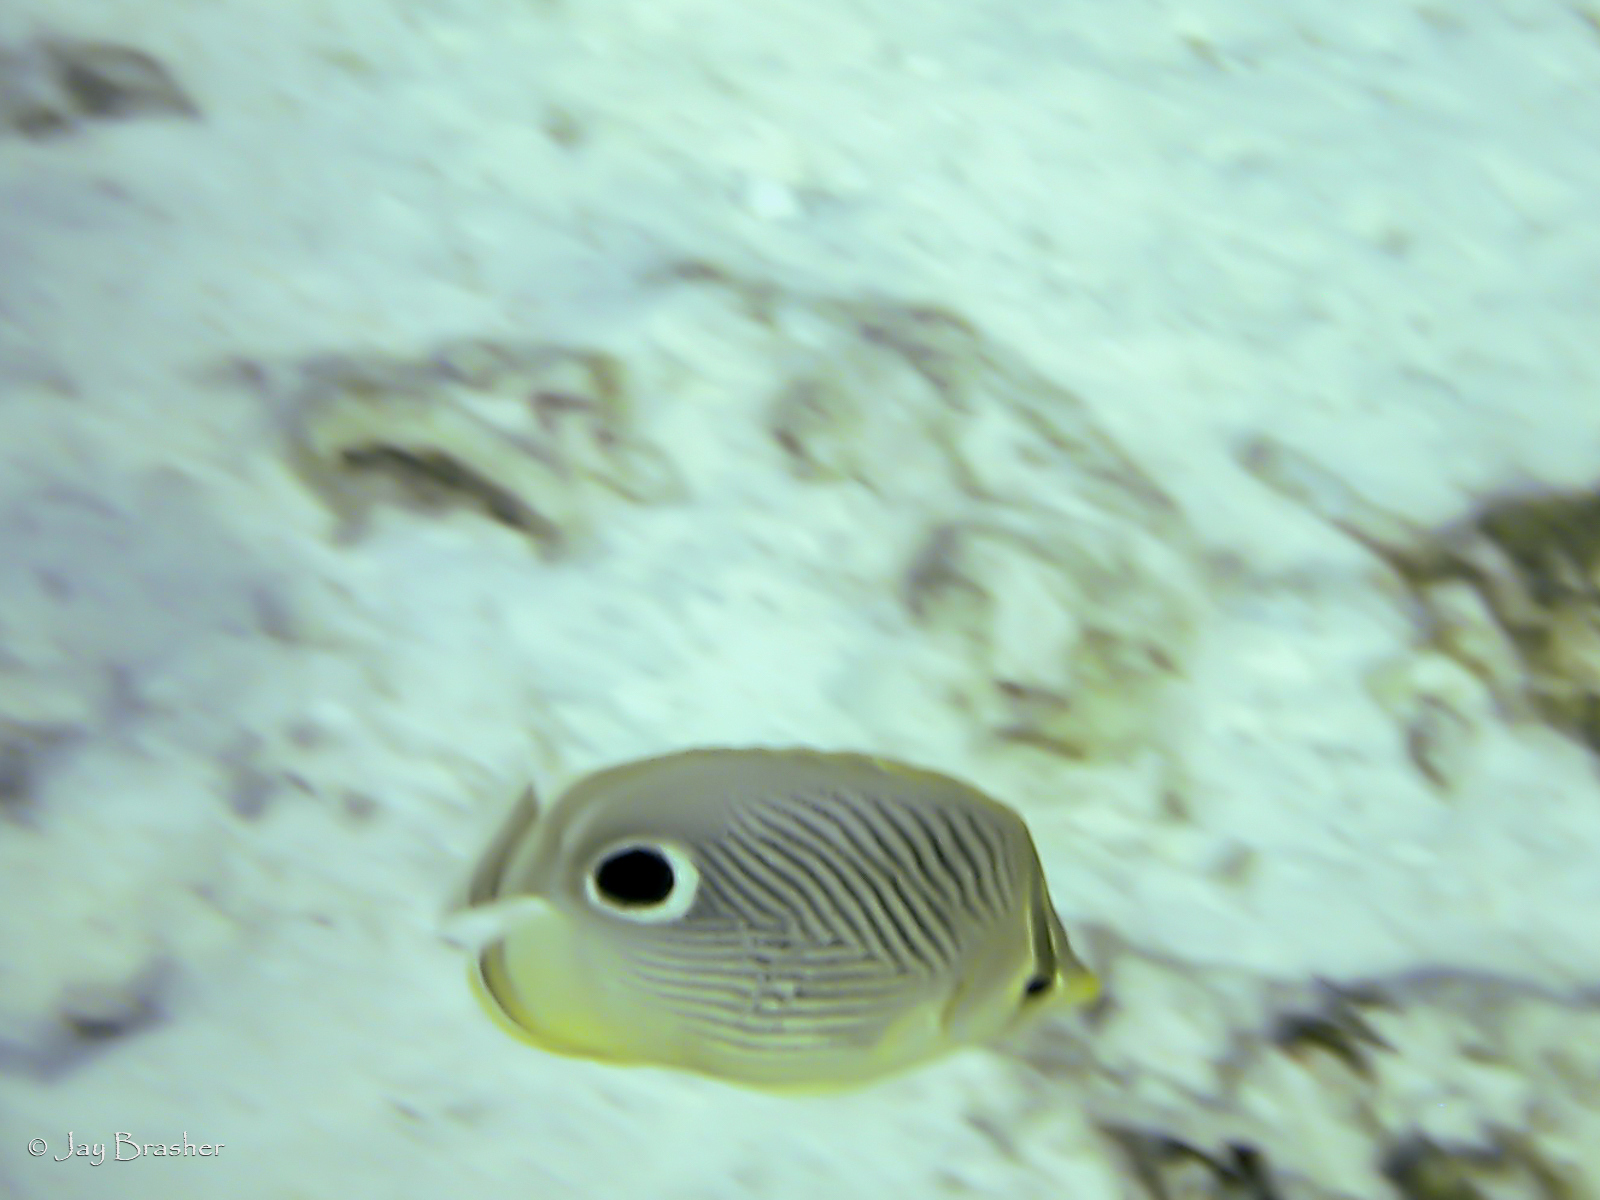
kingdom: Animalia
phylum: Chordata
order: Perciformes
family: Chaetodontidae
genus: Chaetodon
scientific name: Chaetodon capistratus
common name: Kete
